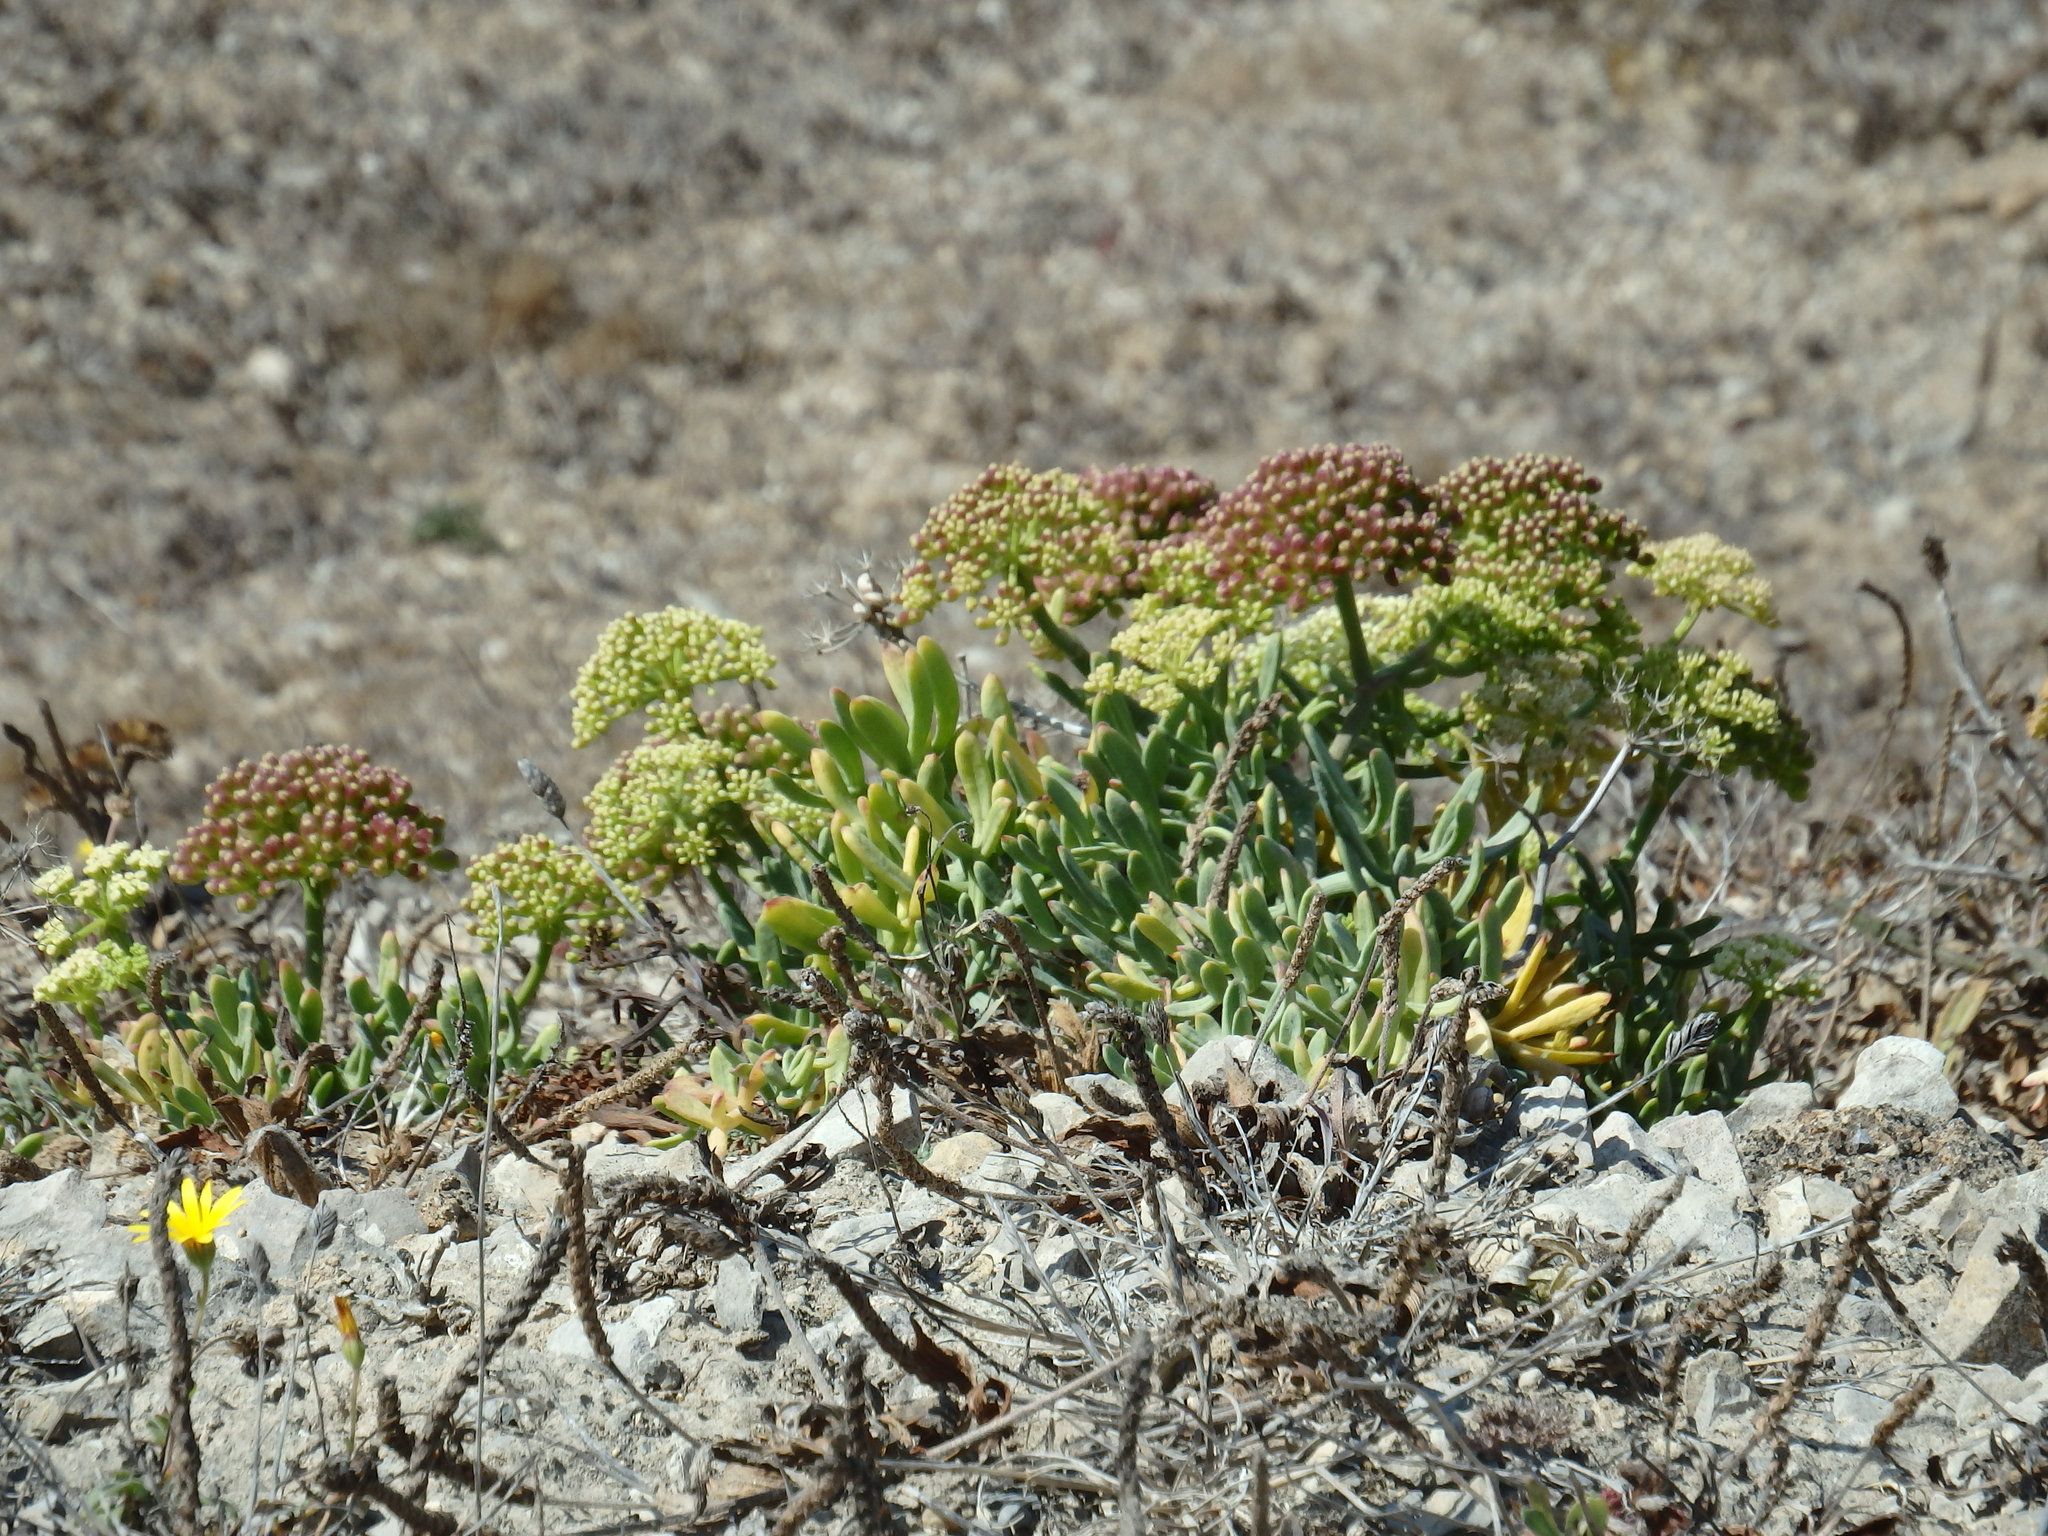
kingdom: Plantae
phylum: Tracheophyta
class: Magnoliopsida
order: Apiales
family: Apiaceae
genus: Crithmum
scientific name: Crithmum maritimum
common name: Rock samphire
